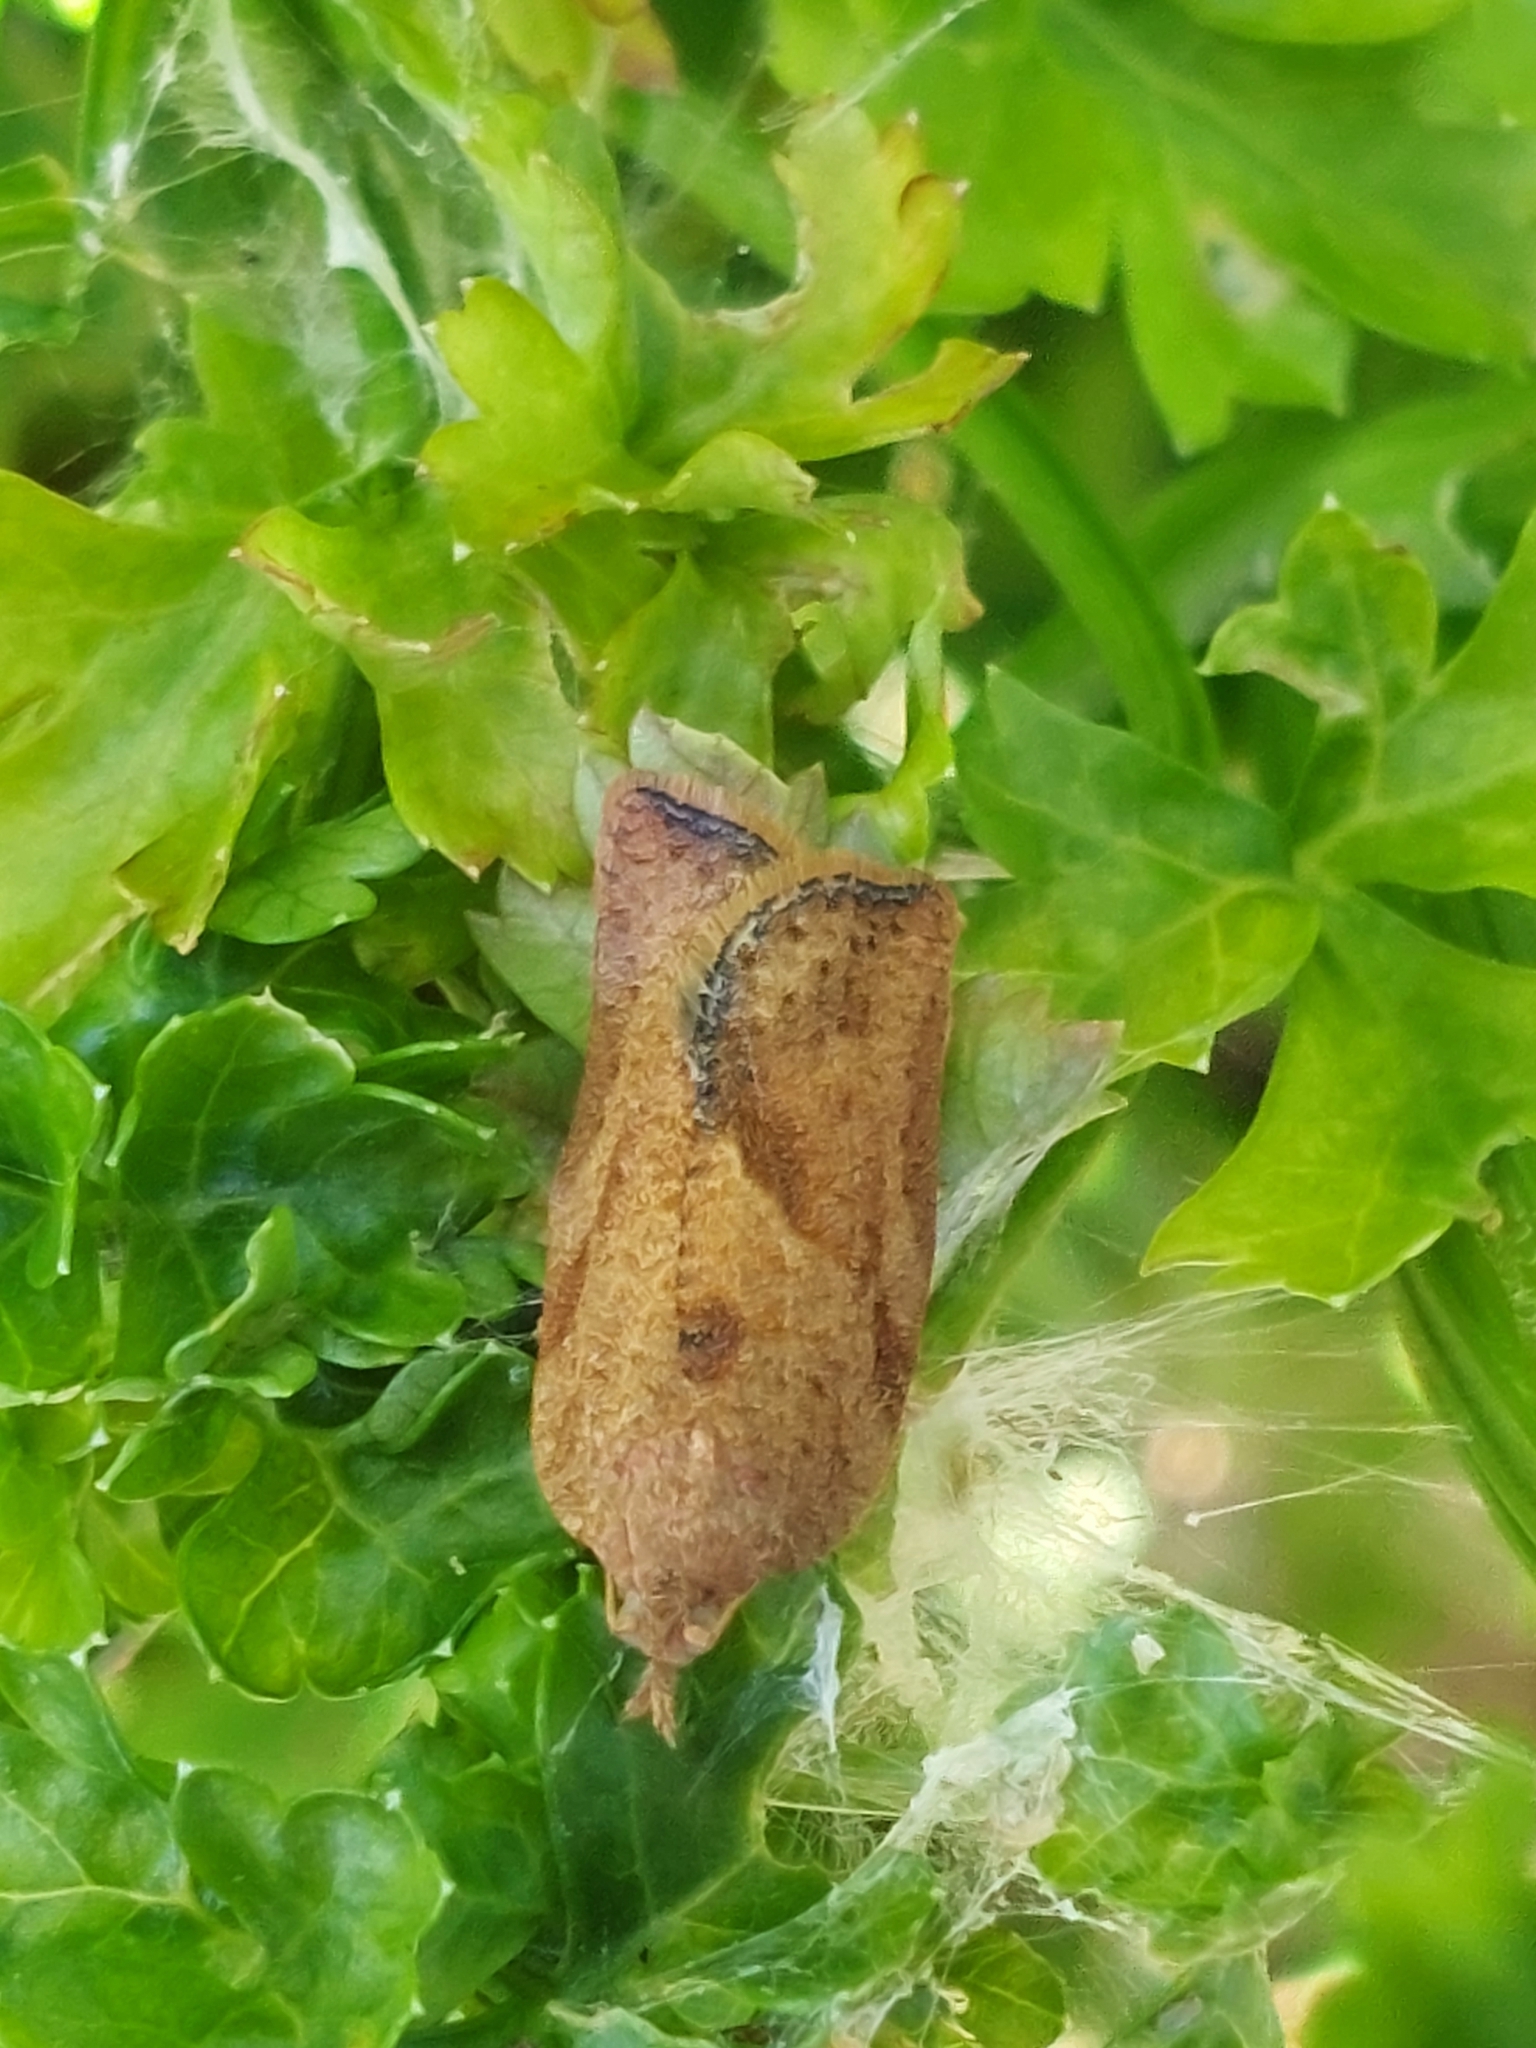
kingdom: Animalia
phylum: Arthropoda
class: Insecta
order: Lepidoptera
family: Tortricidae
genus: Epiphyas
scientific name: Epiphyas postvittana
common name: Light brown apple moth
